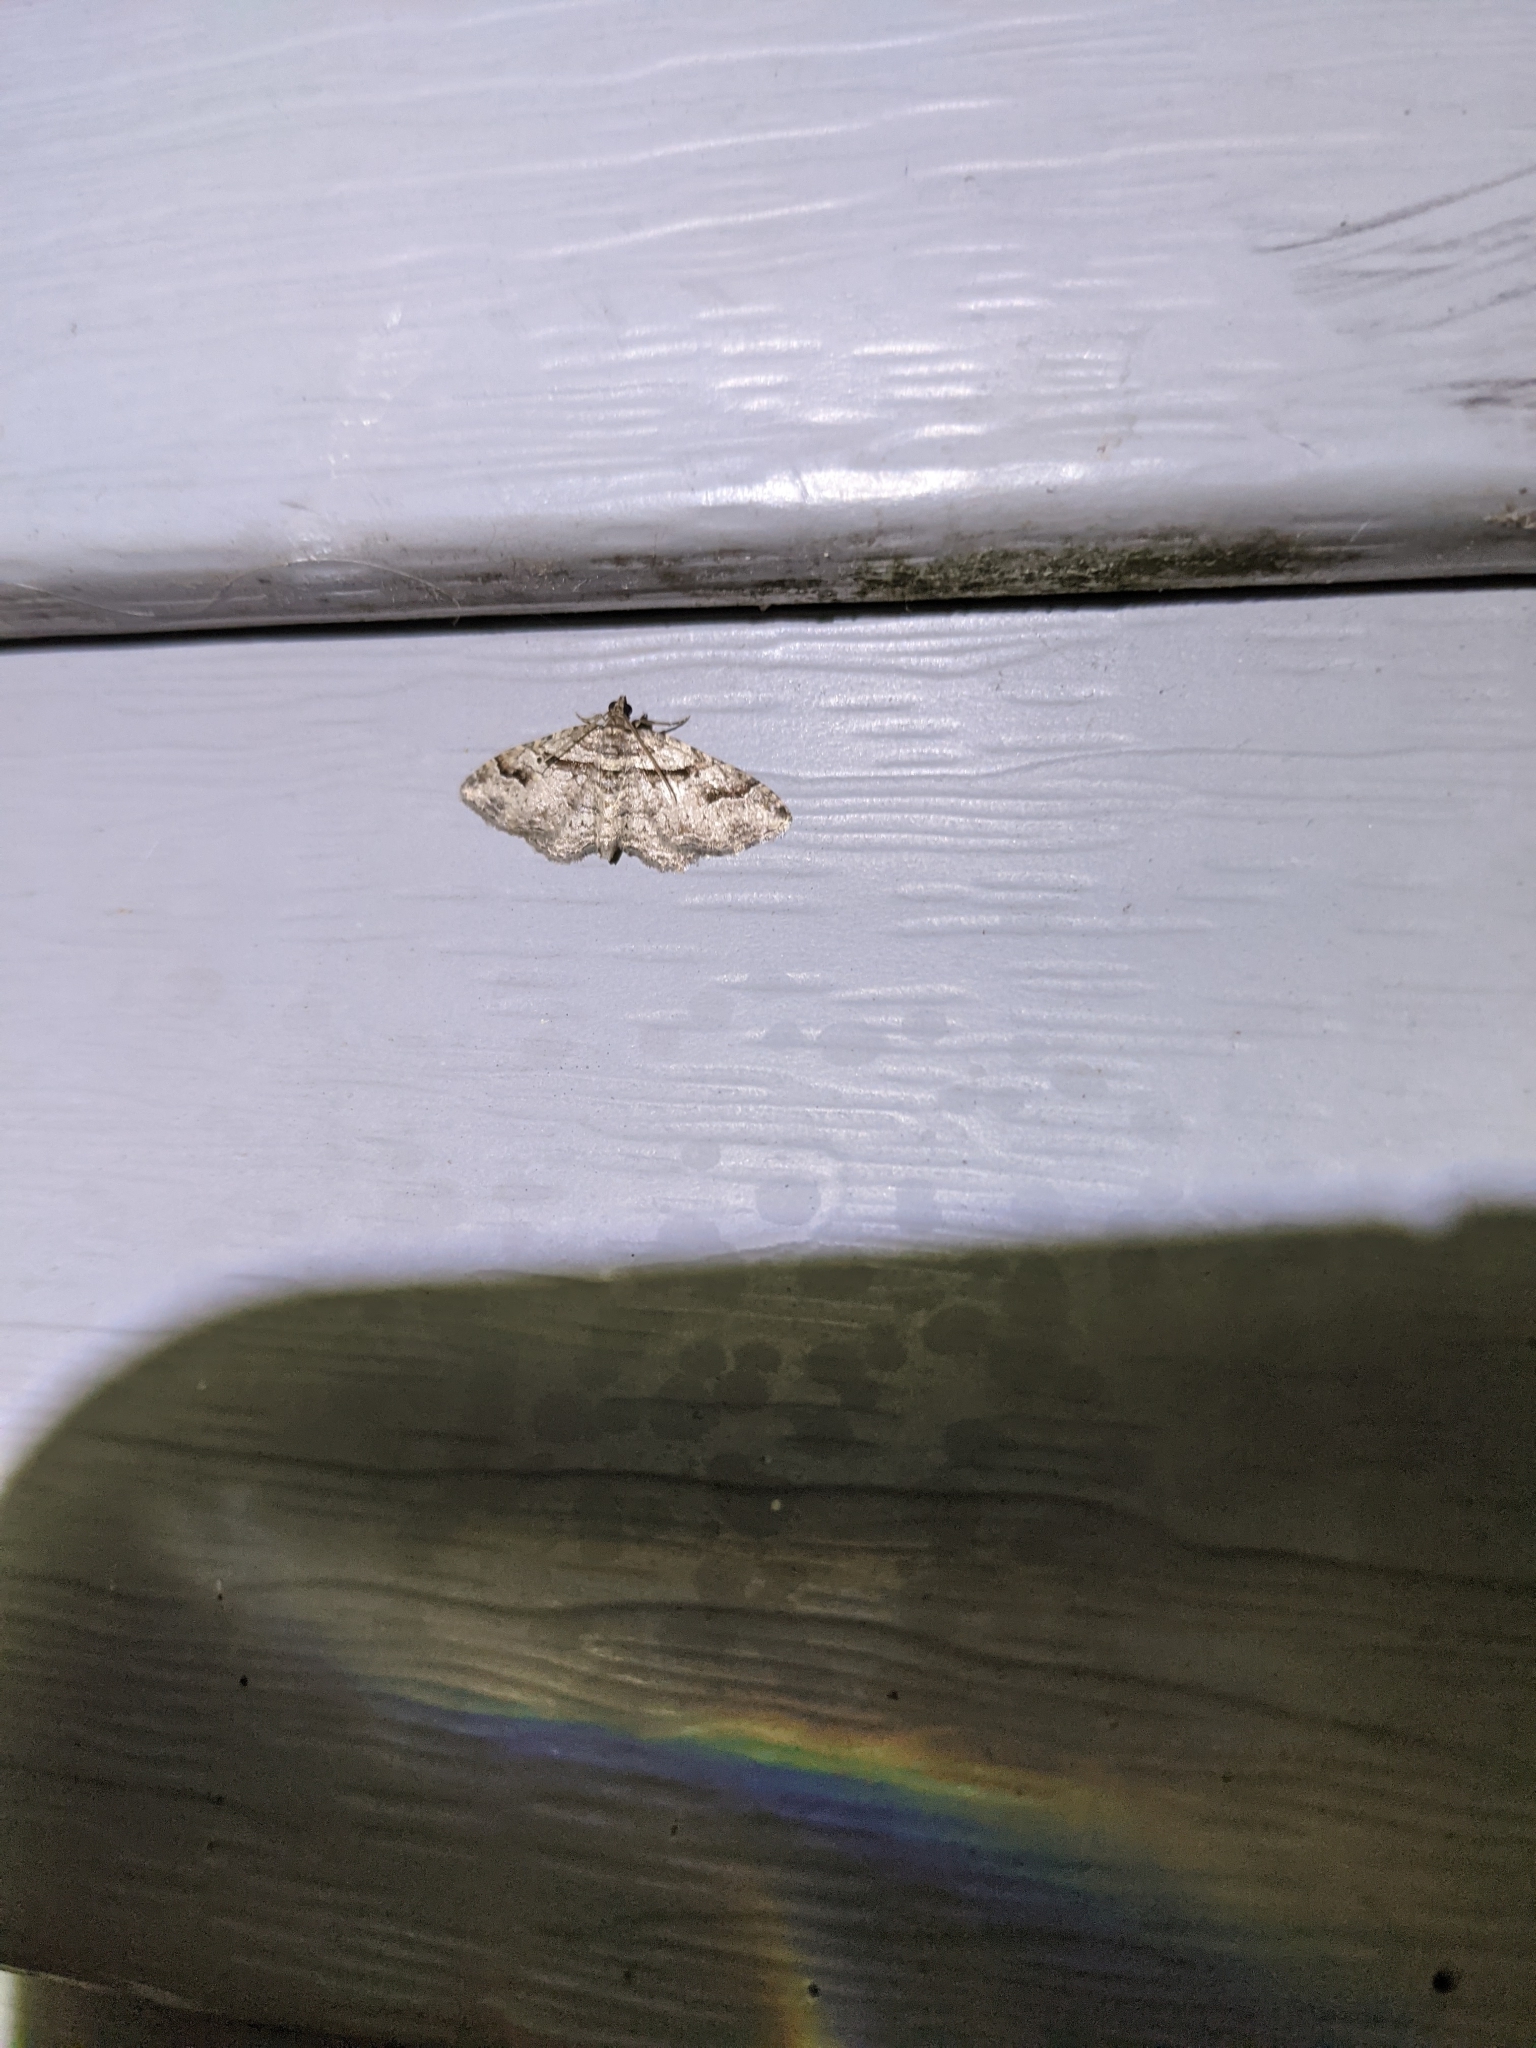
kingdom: Animalia
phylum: Arthropoda
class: Insecta
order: Lepidoptera
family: Geometridae
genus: Costaconvexa
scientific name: Costaconvexa centrostrigaria
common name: Bent-line carpet
